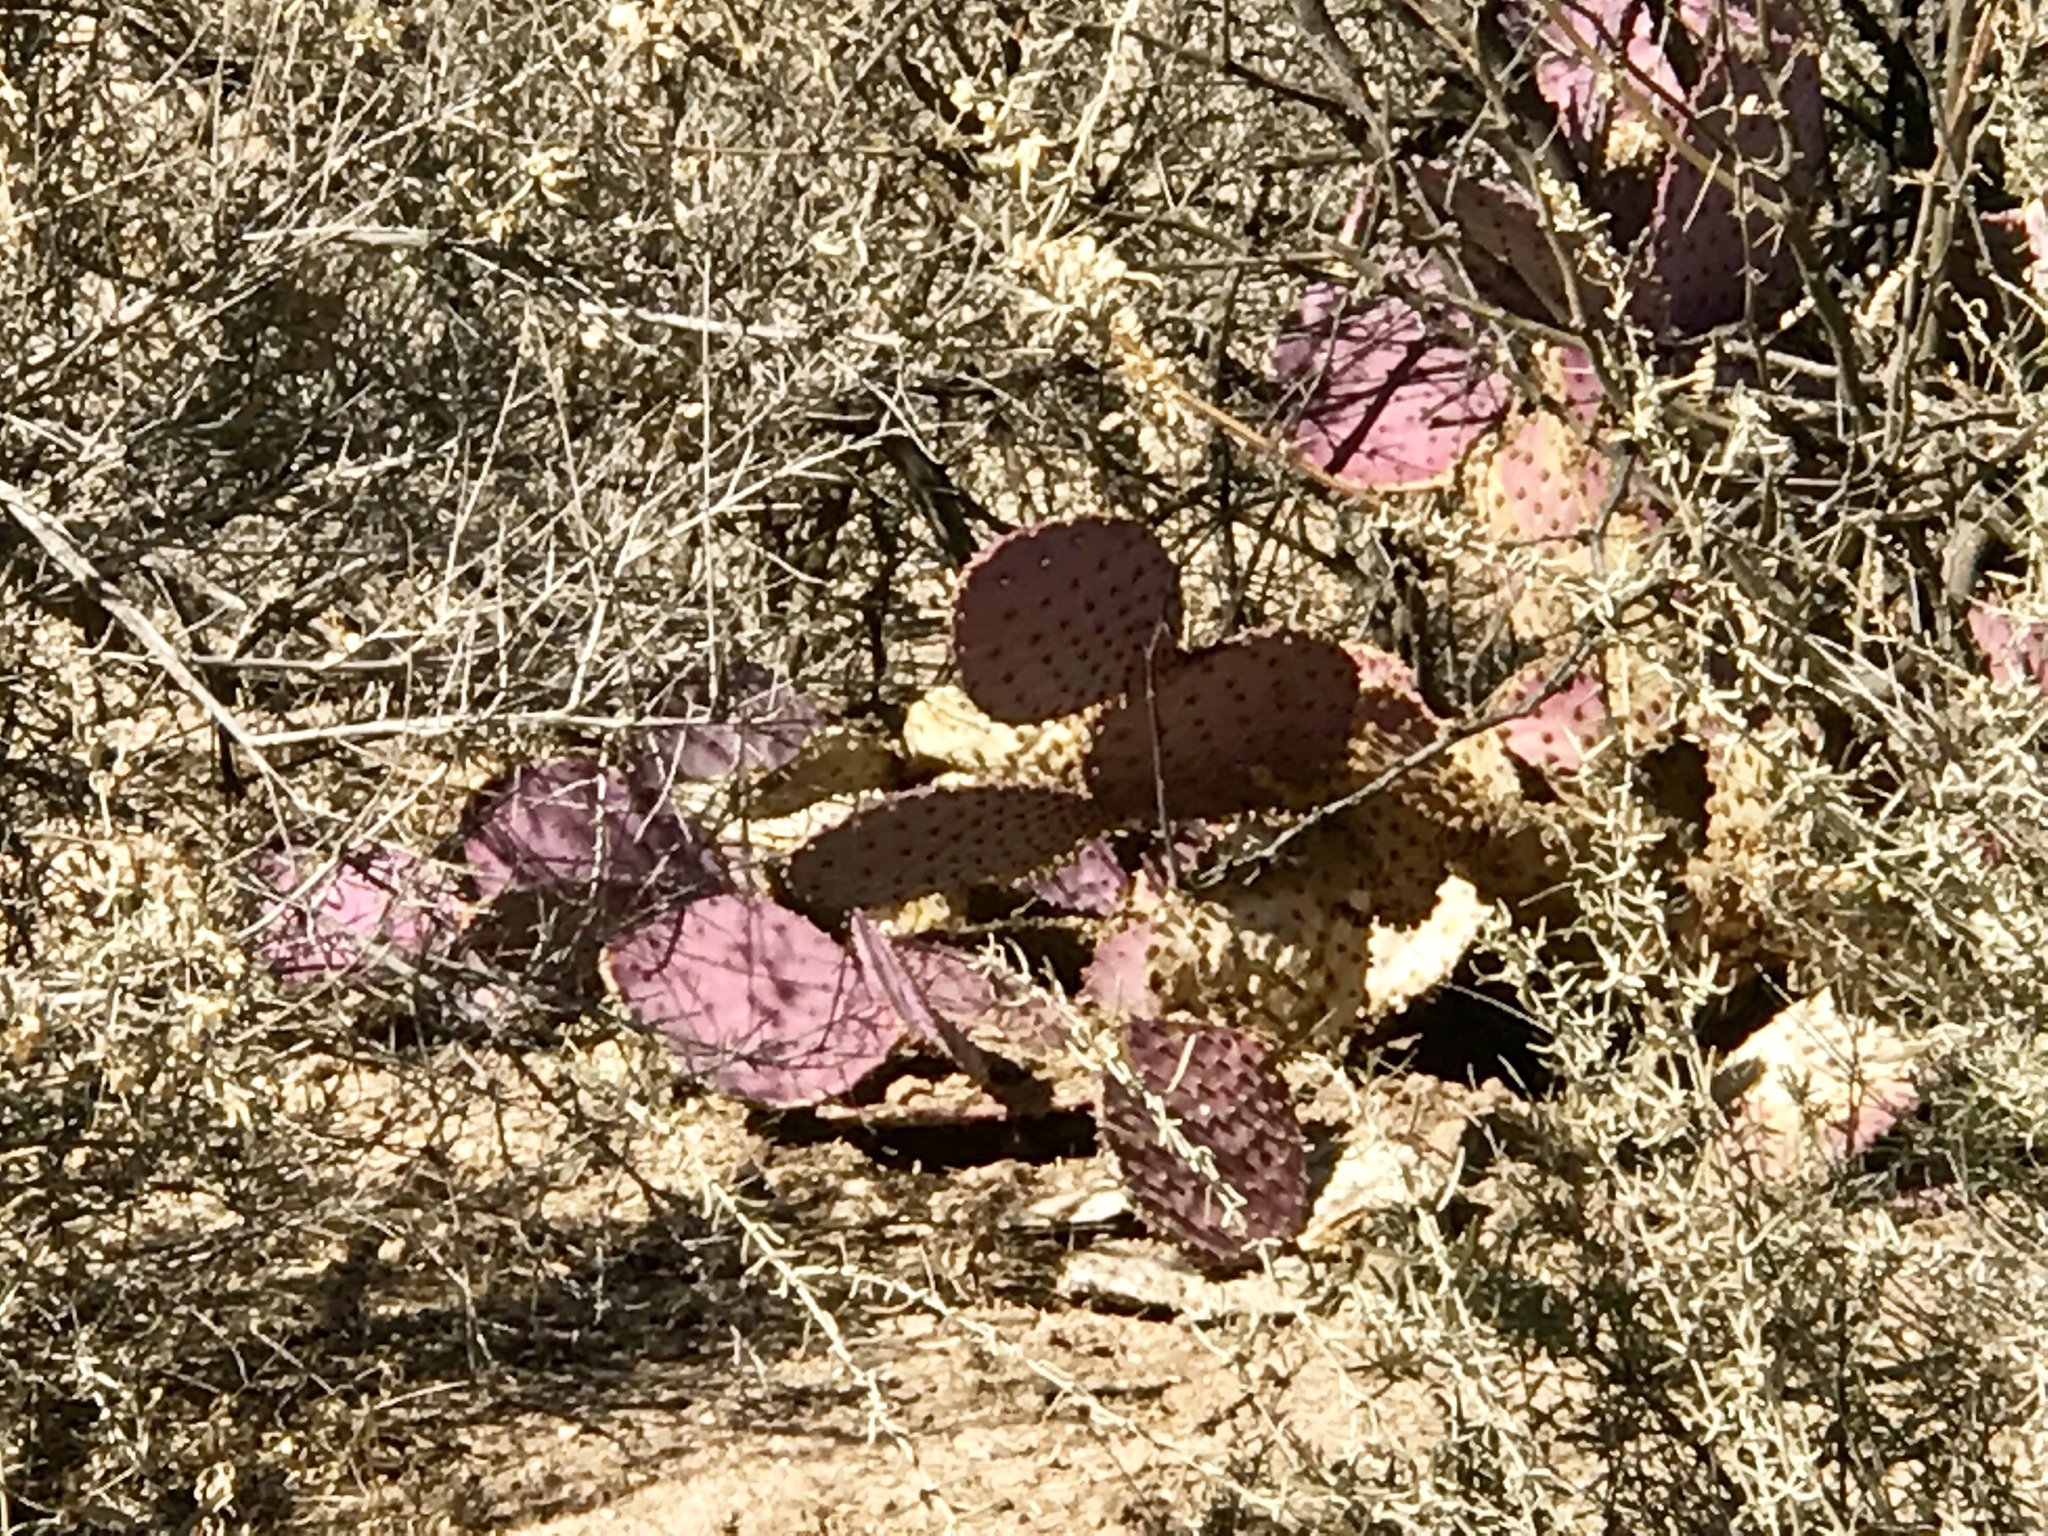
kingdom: Plantae
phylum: Tracheophyta
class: Magnoliopsida
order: Caryophyllales
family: Cactaceae
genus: Opuntia
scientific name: Opuntia macrocentra
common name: Purple prickly-pear
